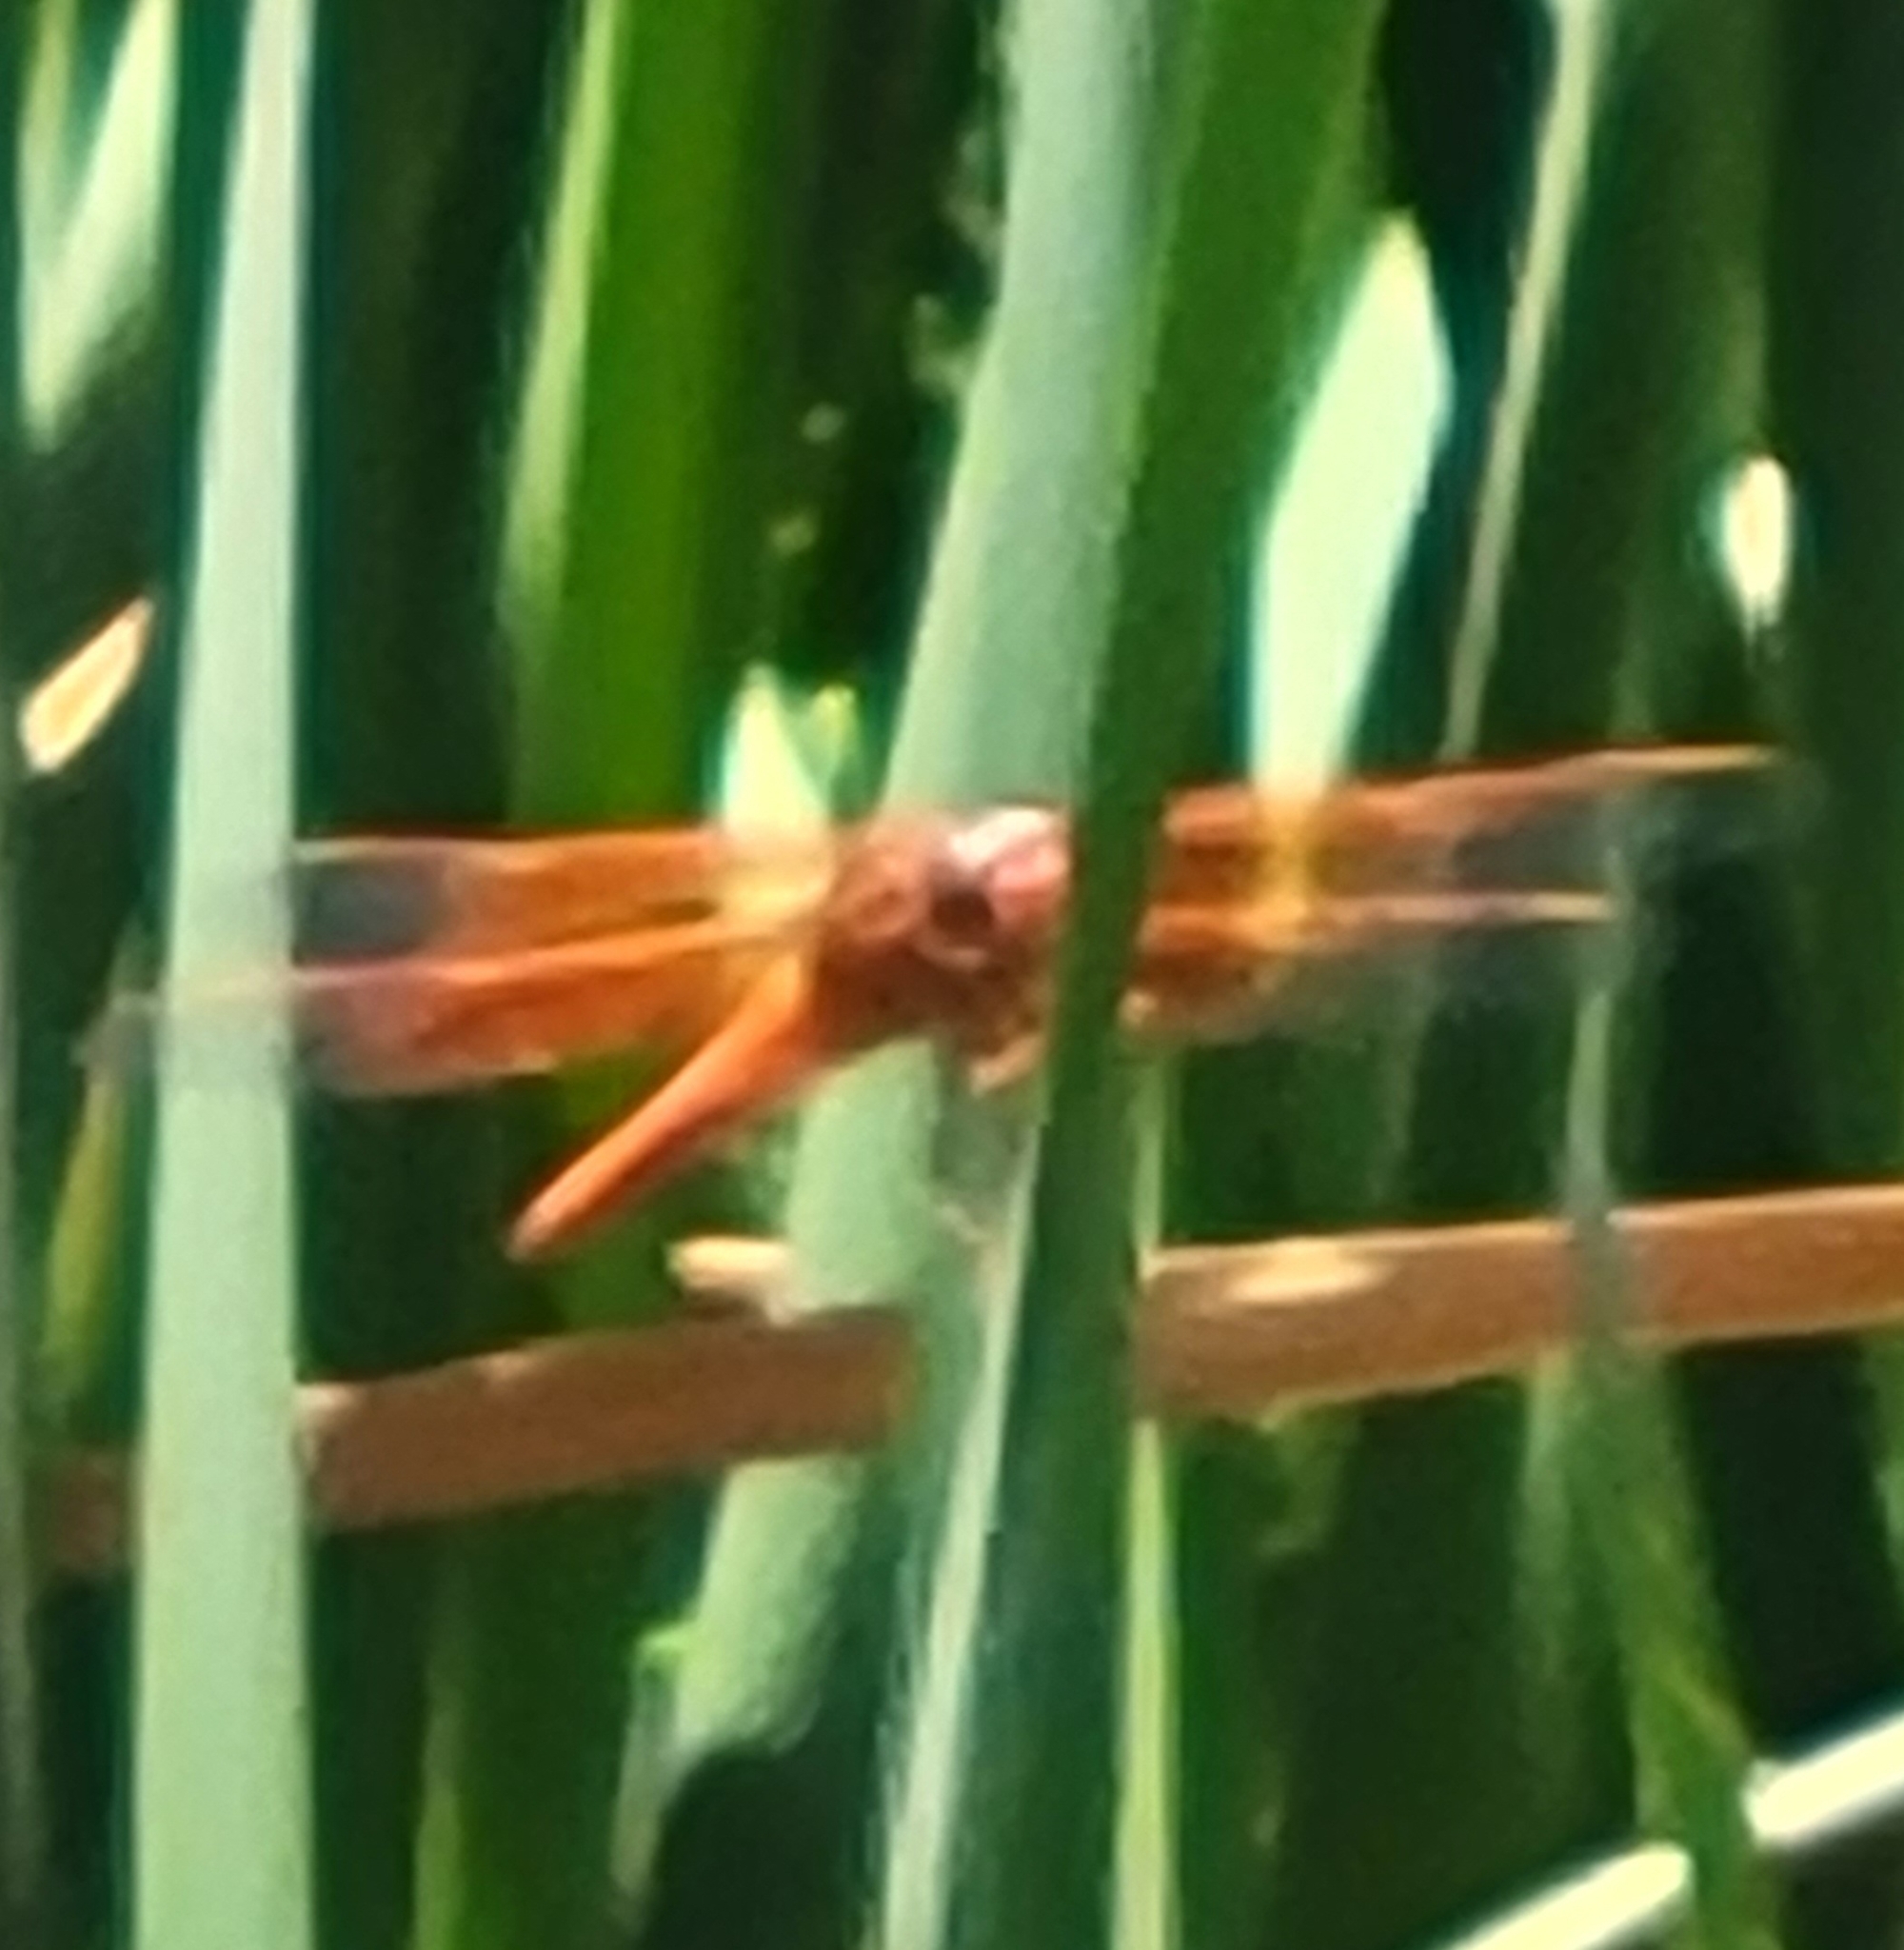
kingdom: Animalia
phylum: Arthropoda
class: Insecta
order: Odonata
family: Libellulidae
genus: Libellula
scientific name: Libellula saturata
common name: Flame skimmer
